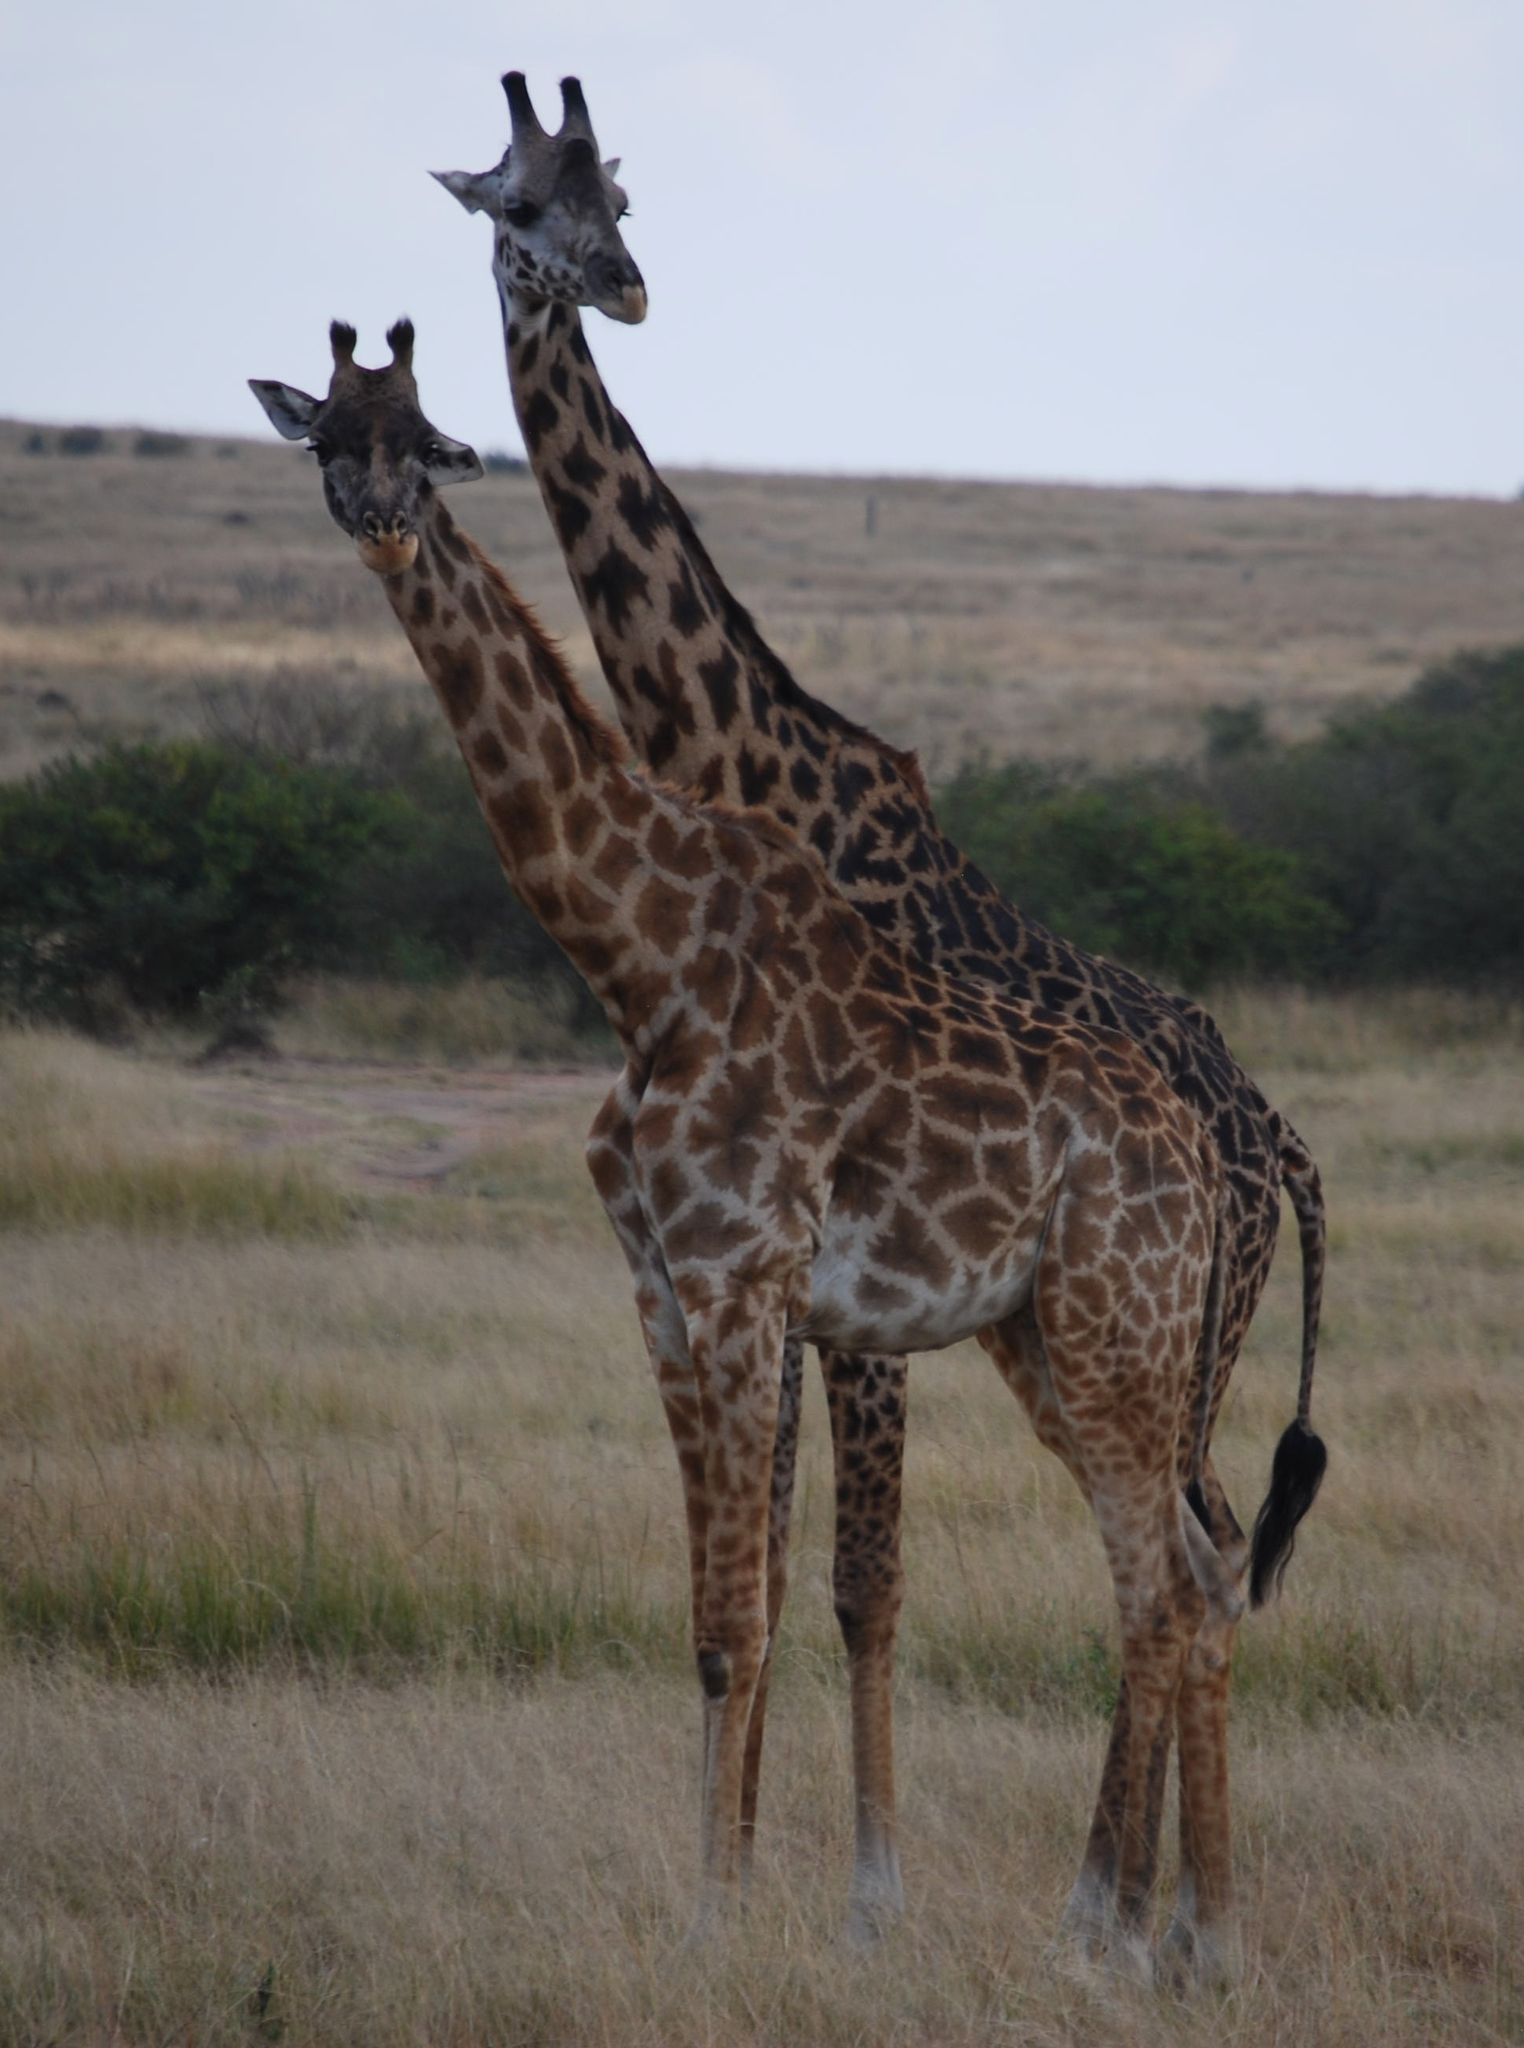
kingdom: Animalia
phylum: Chordata
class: Mammalia
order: Artiodactyla
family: Giraffidae
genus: Giraffa
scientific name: Giraffa tippelskirchi
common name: Masai giraffe
